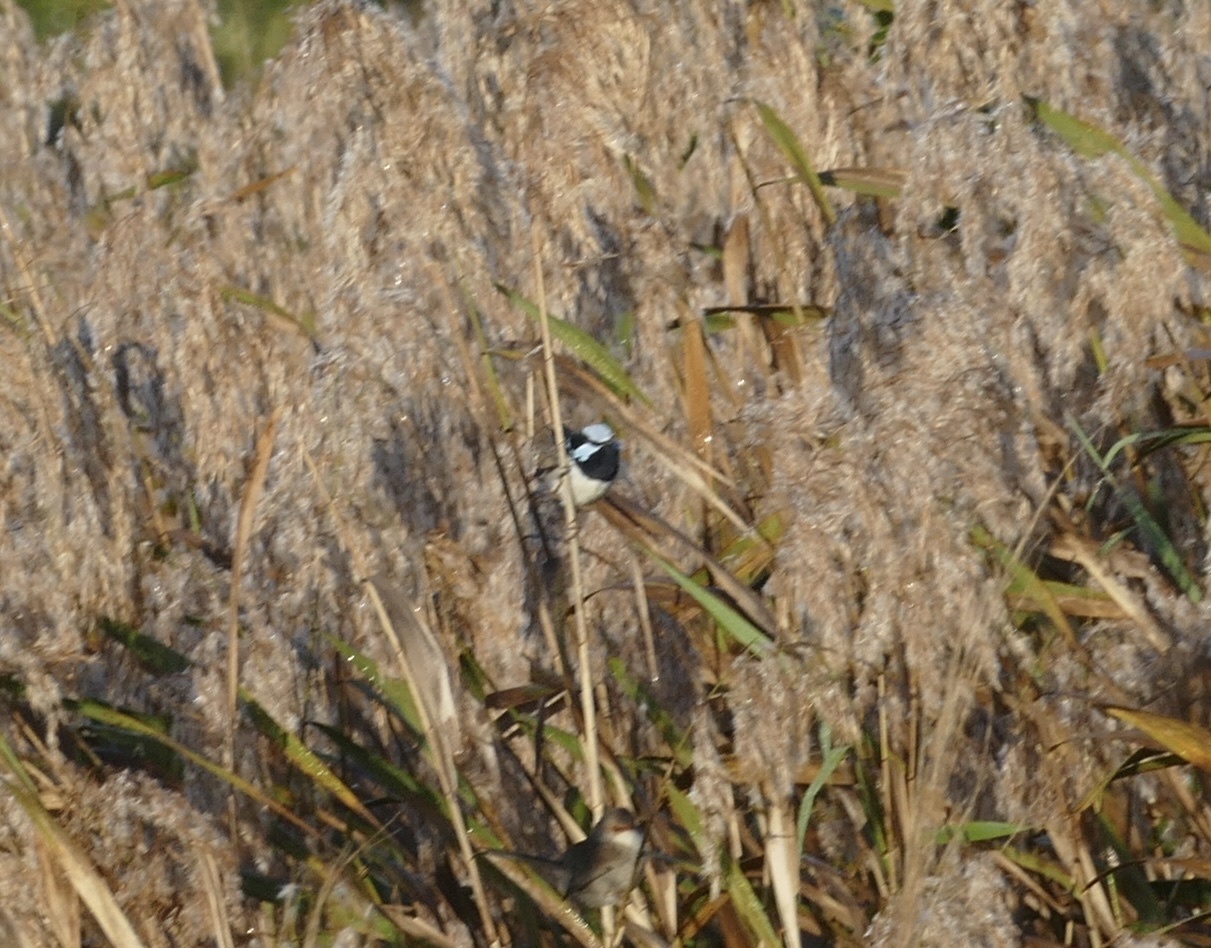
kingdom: Animalia
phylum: Chordata
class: Aves
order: Passeriformes
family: Maluridae
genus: Malurus
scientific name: Malurus cyaneus
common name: Superb fairywren
